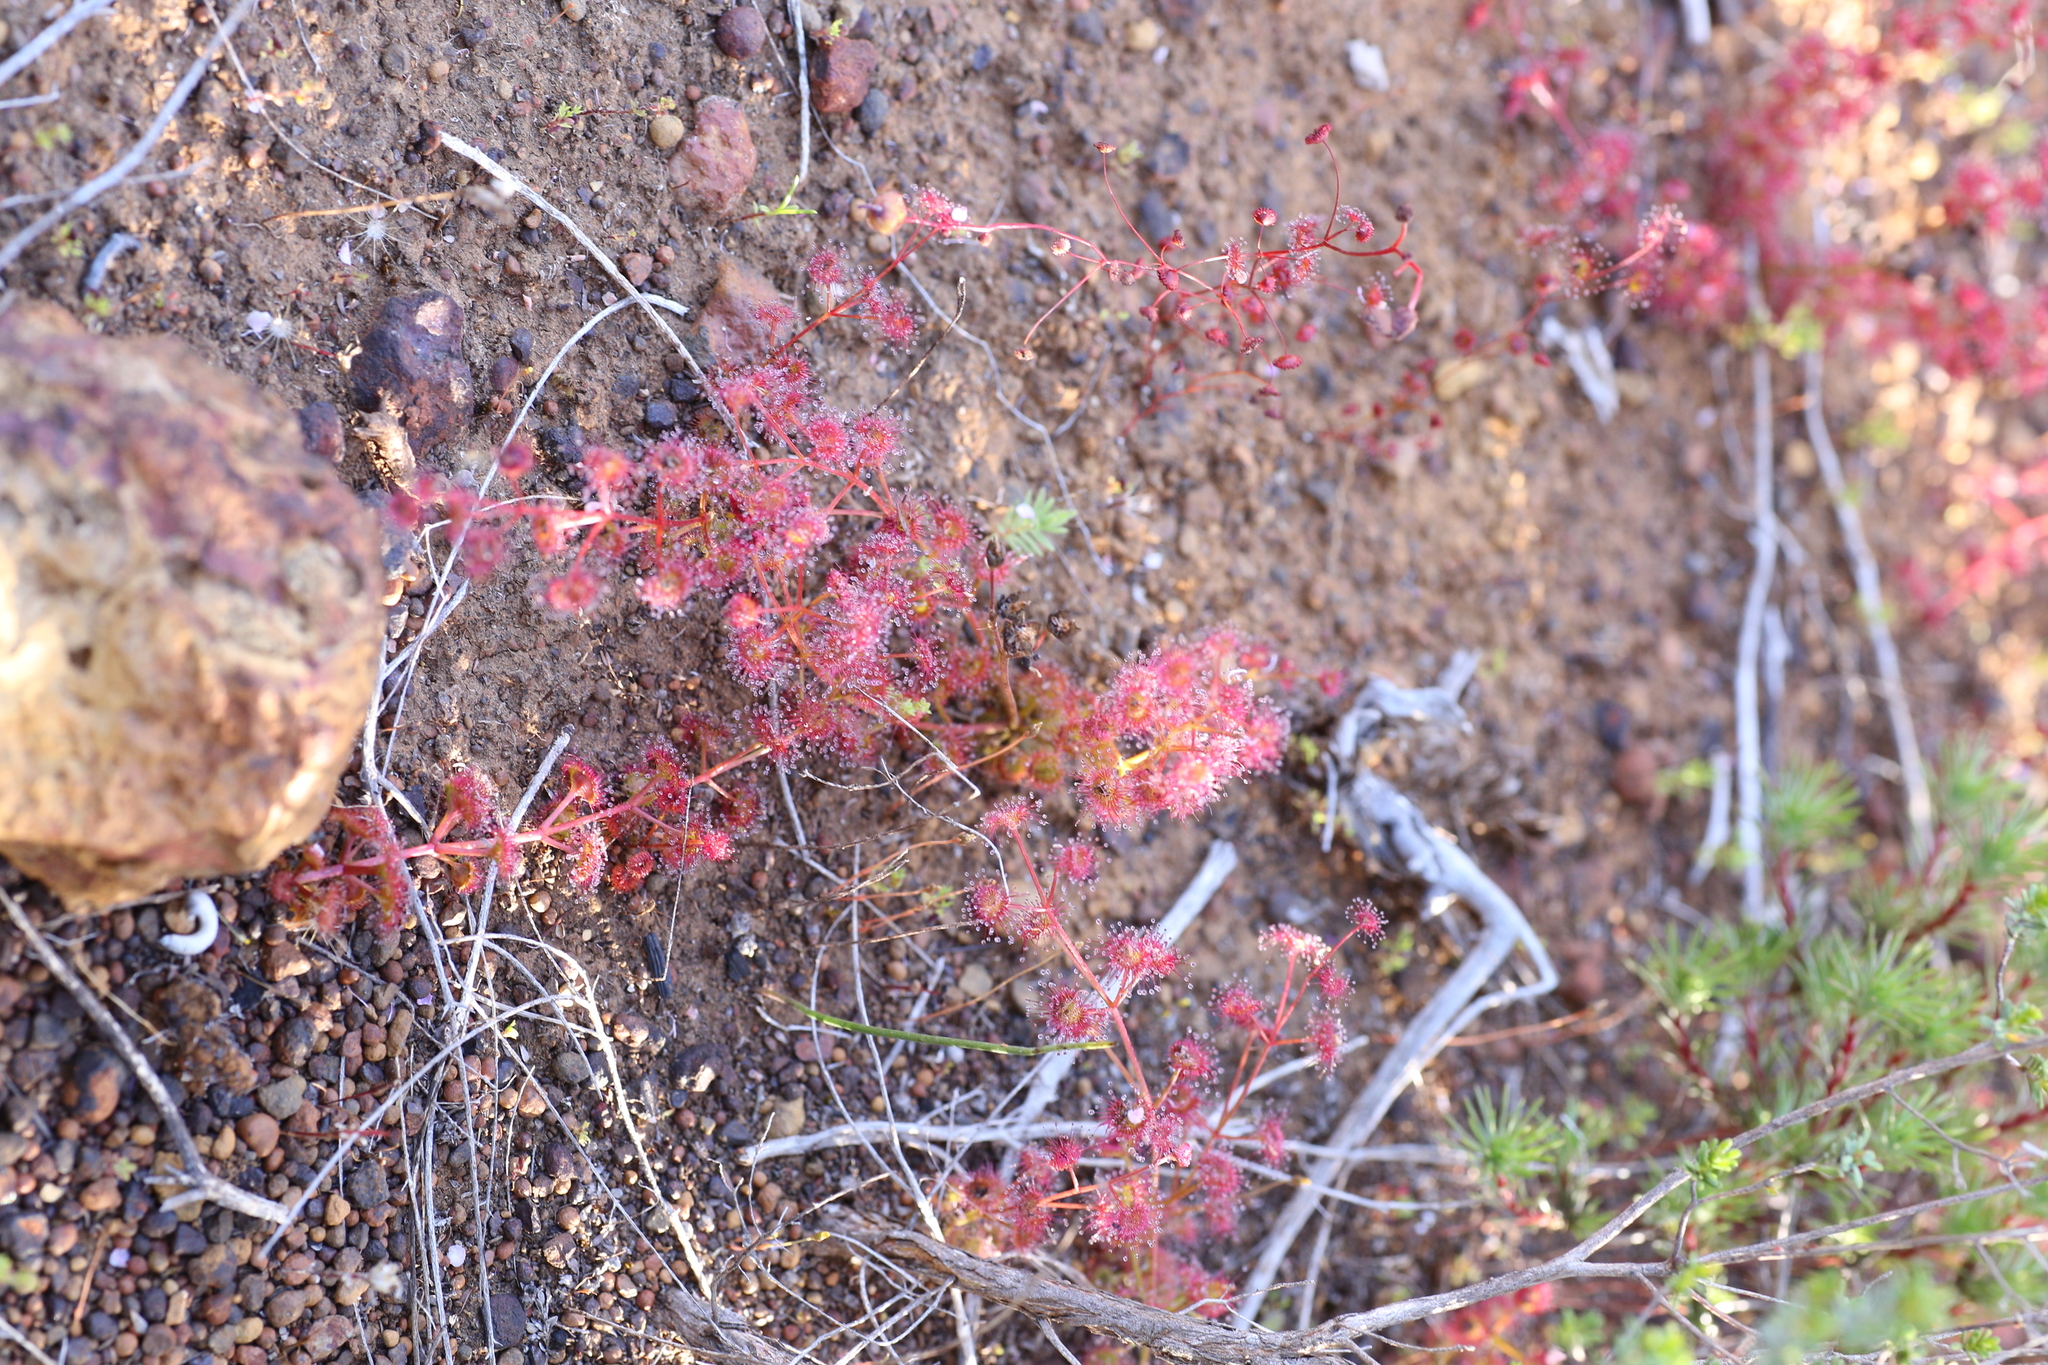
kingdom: Plantae
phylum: Tracheophyta
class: Magnoliopsida
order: Caryophyllales
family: Droseraceae
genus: Drosera
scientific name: Drosera stolonifera
